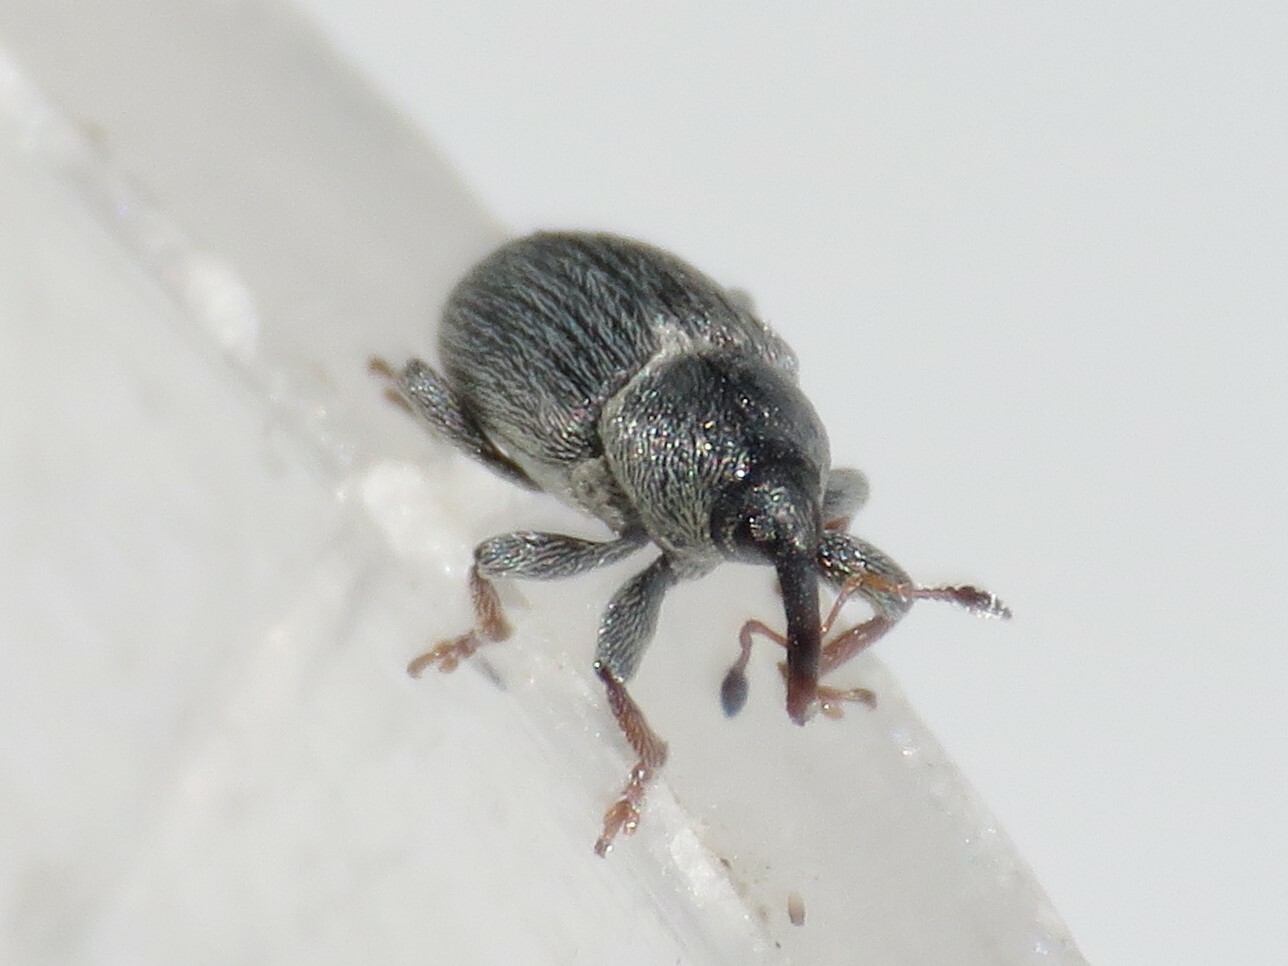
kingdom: Animalia
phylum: Arthropoda
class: Insecta
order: Coleoptera
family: Curculionidae
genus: Tychius
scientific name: Tychius picirostris
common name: Clover seed weevil
